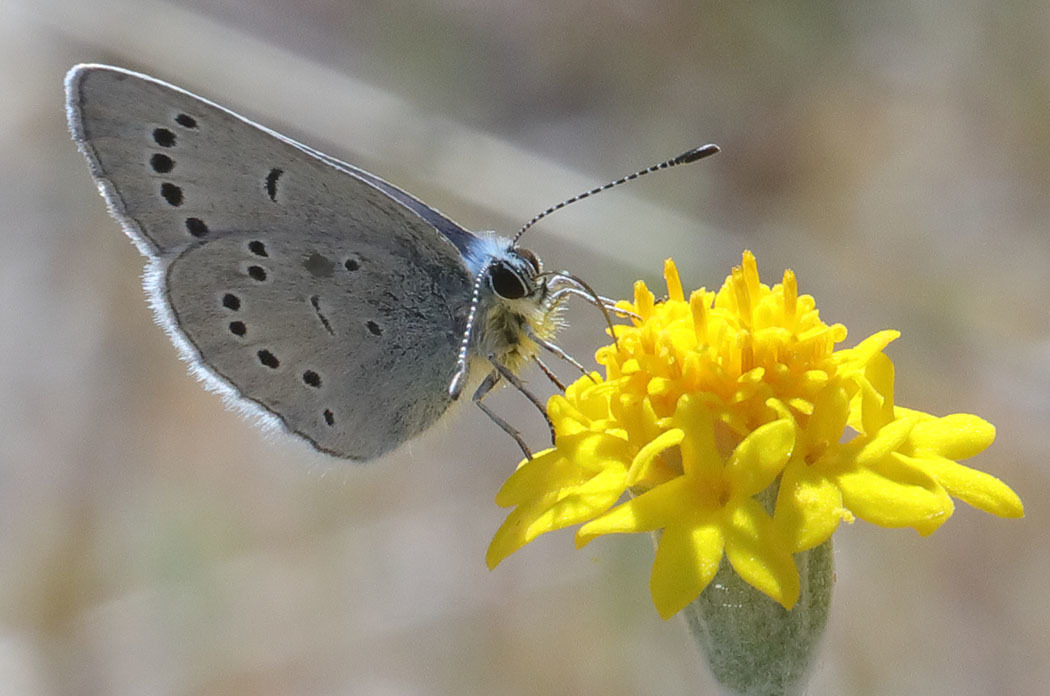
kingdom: Animalia
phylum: Arthropoda
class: Insecta
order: Lepidoptera
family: Lycaenidae
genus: Glaucopsyche
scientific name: Glaucopsyche lygdamus
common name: Silvery blue
